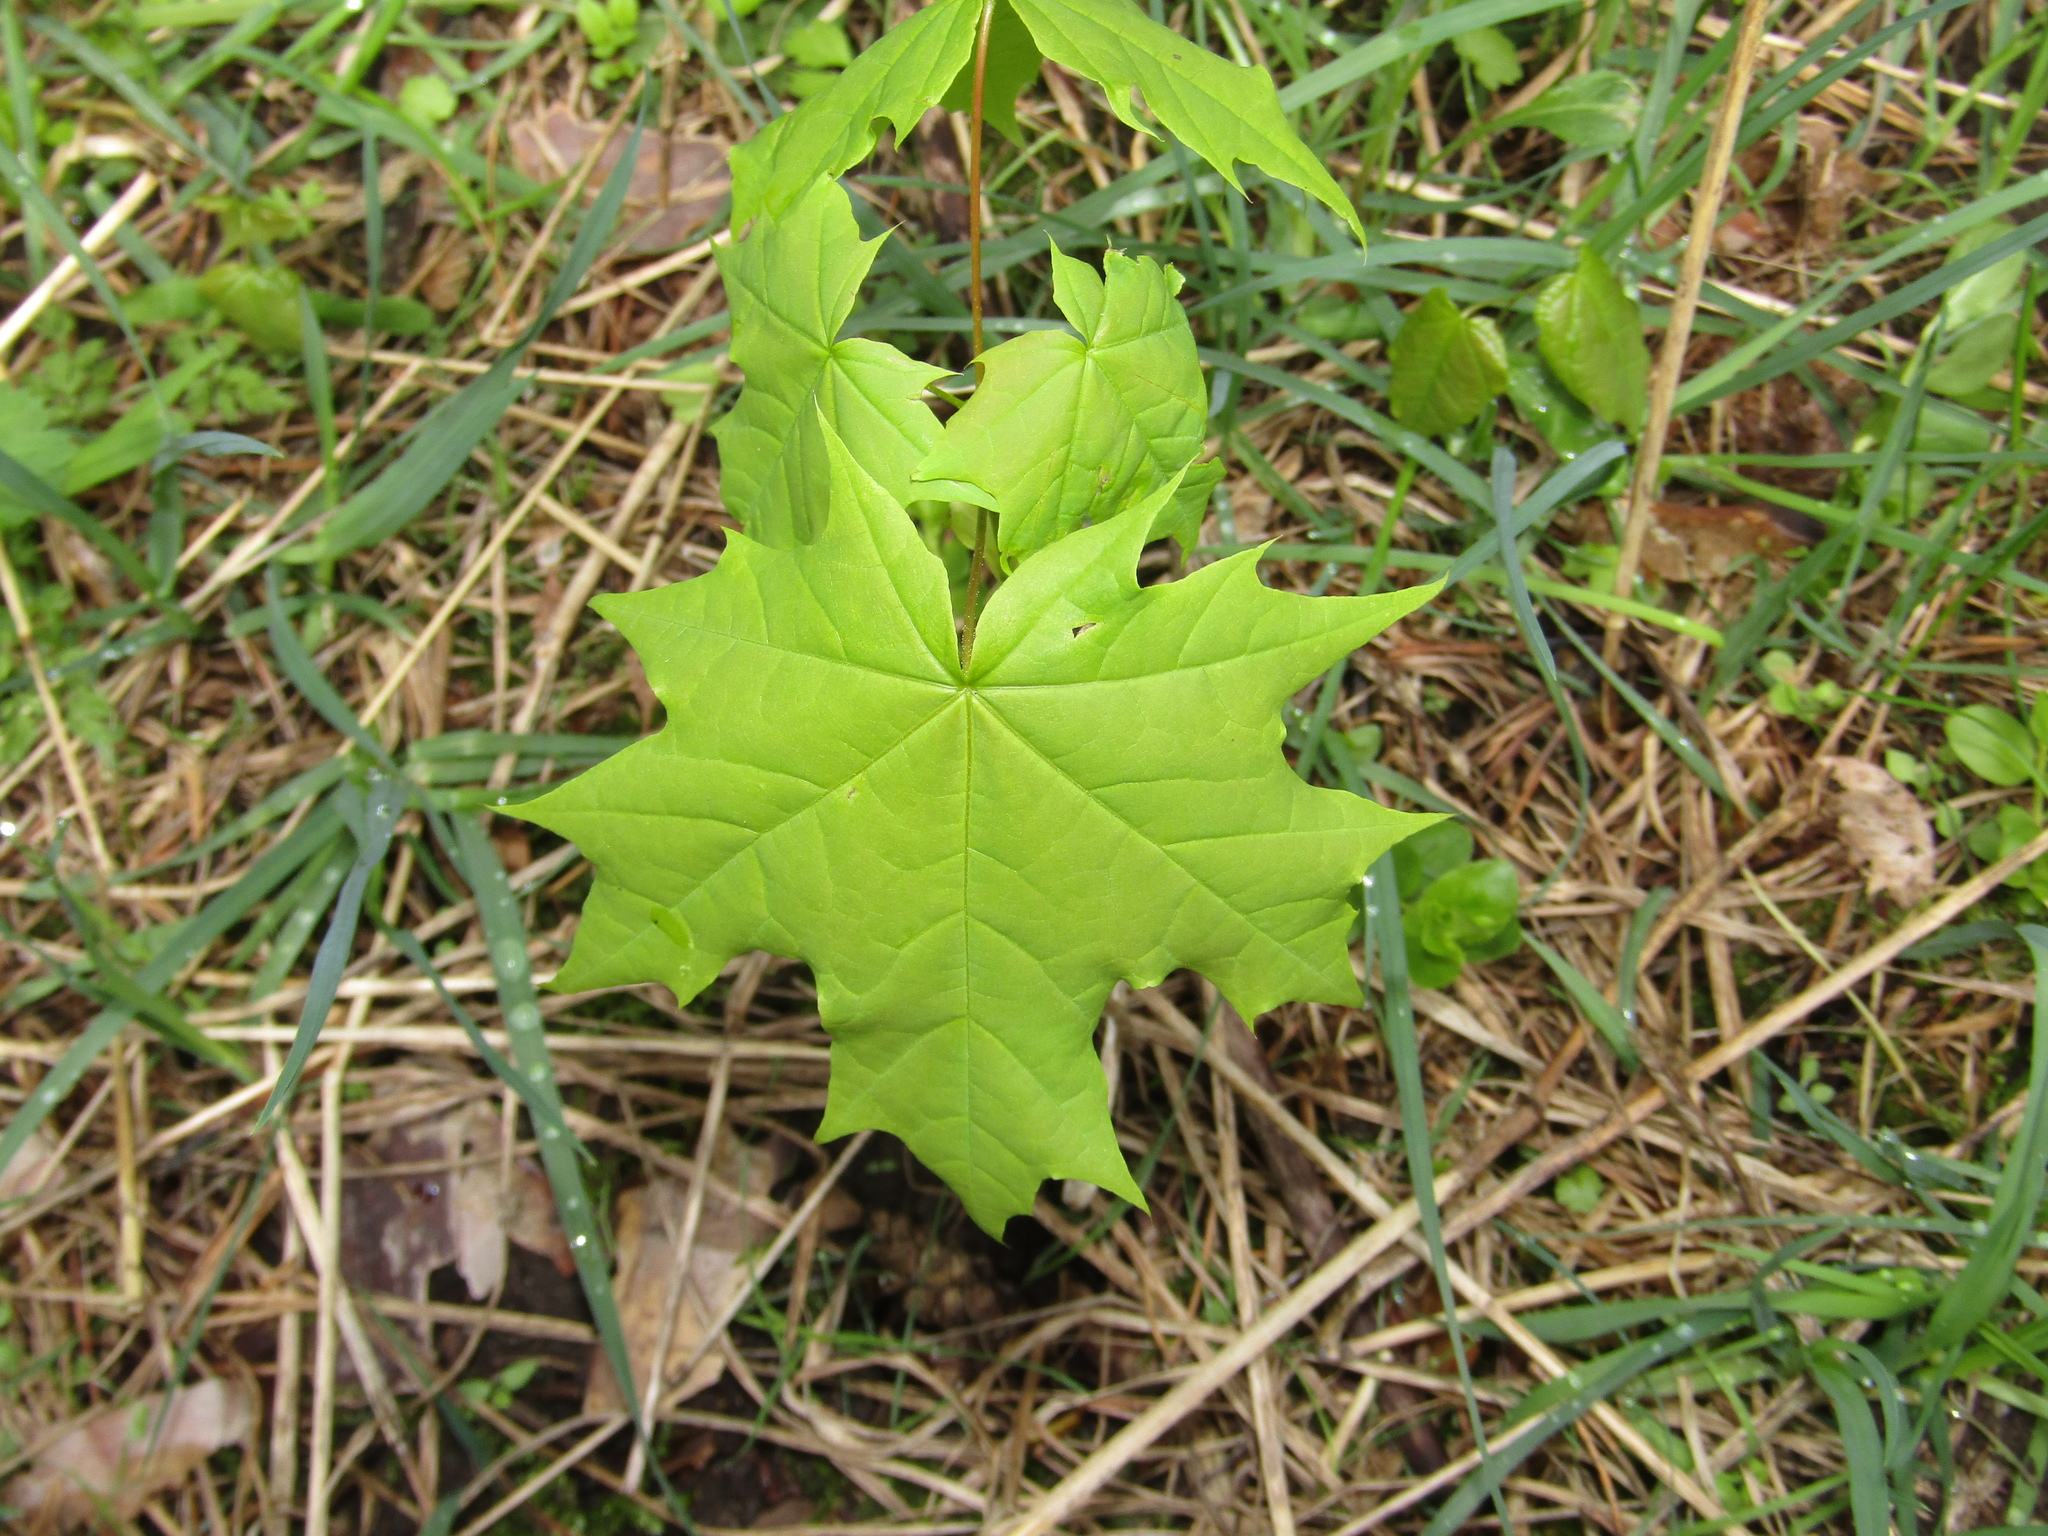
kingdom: Plantae
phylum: Tracheophyta
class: Magnoliopsida
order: Sapindales
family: Sapindaceae
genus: Acer
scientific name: Acer platanoides
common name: Norway maple
